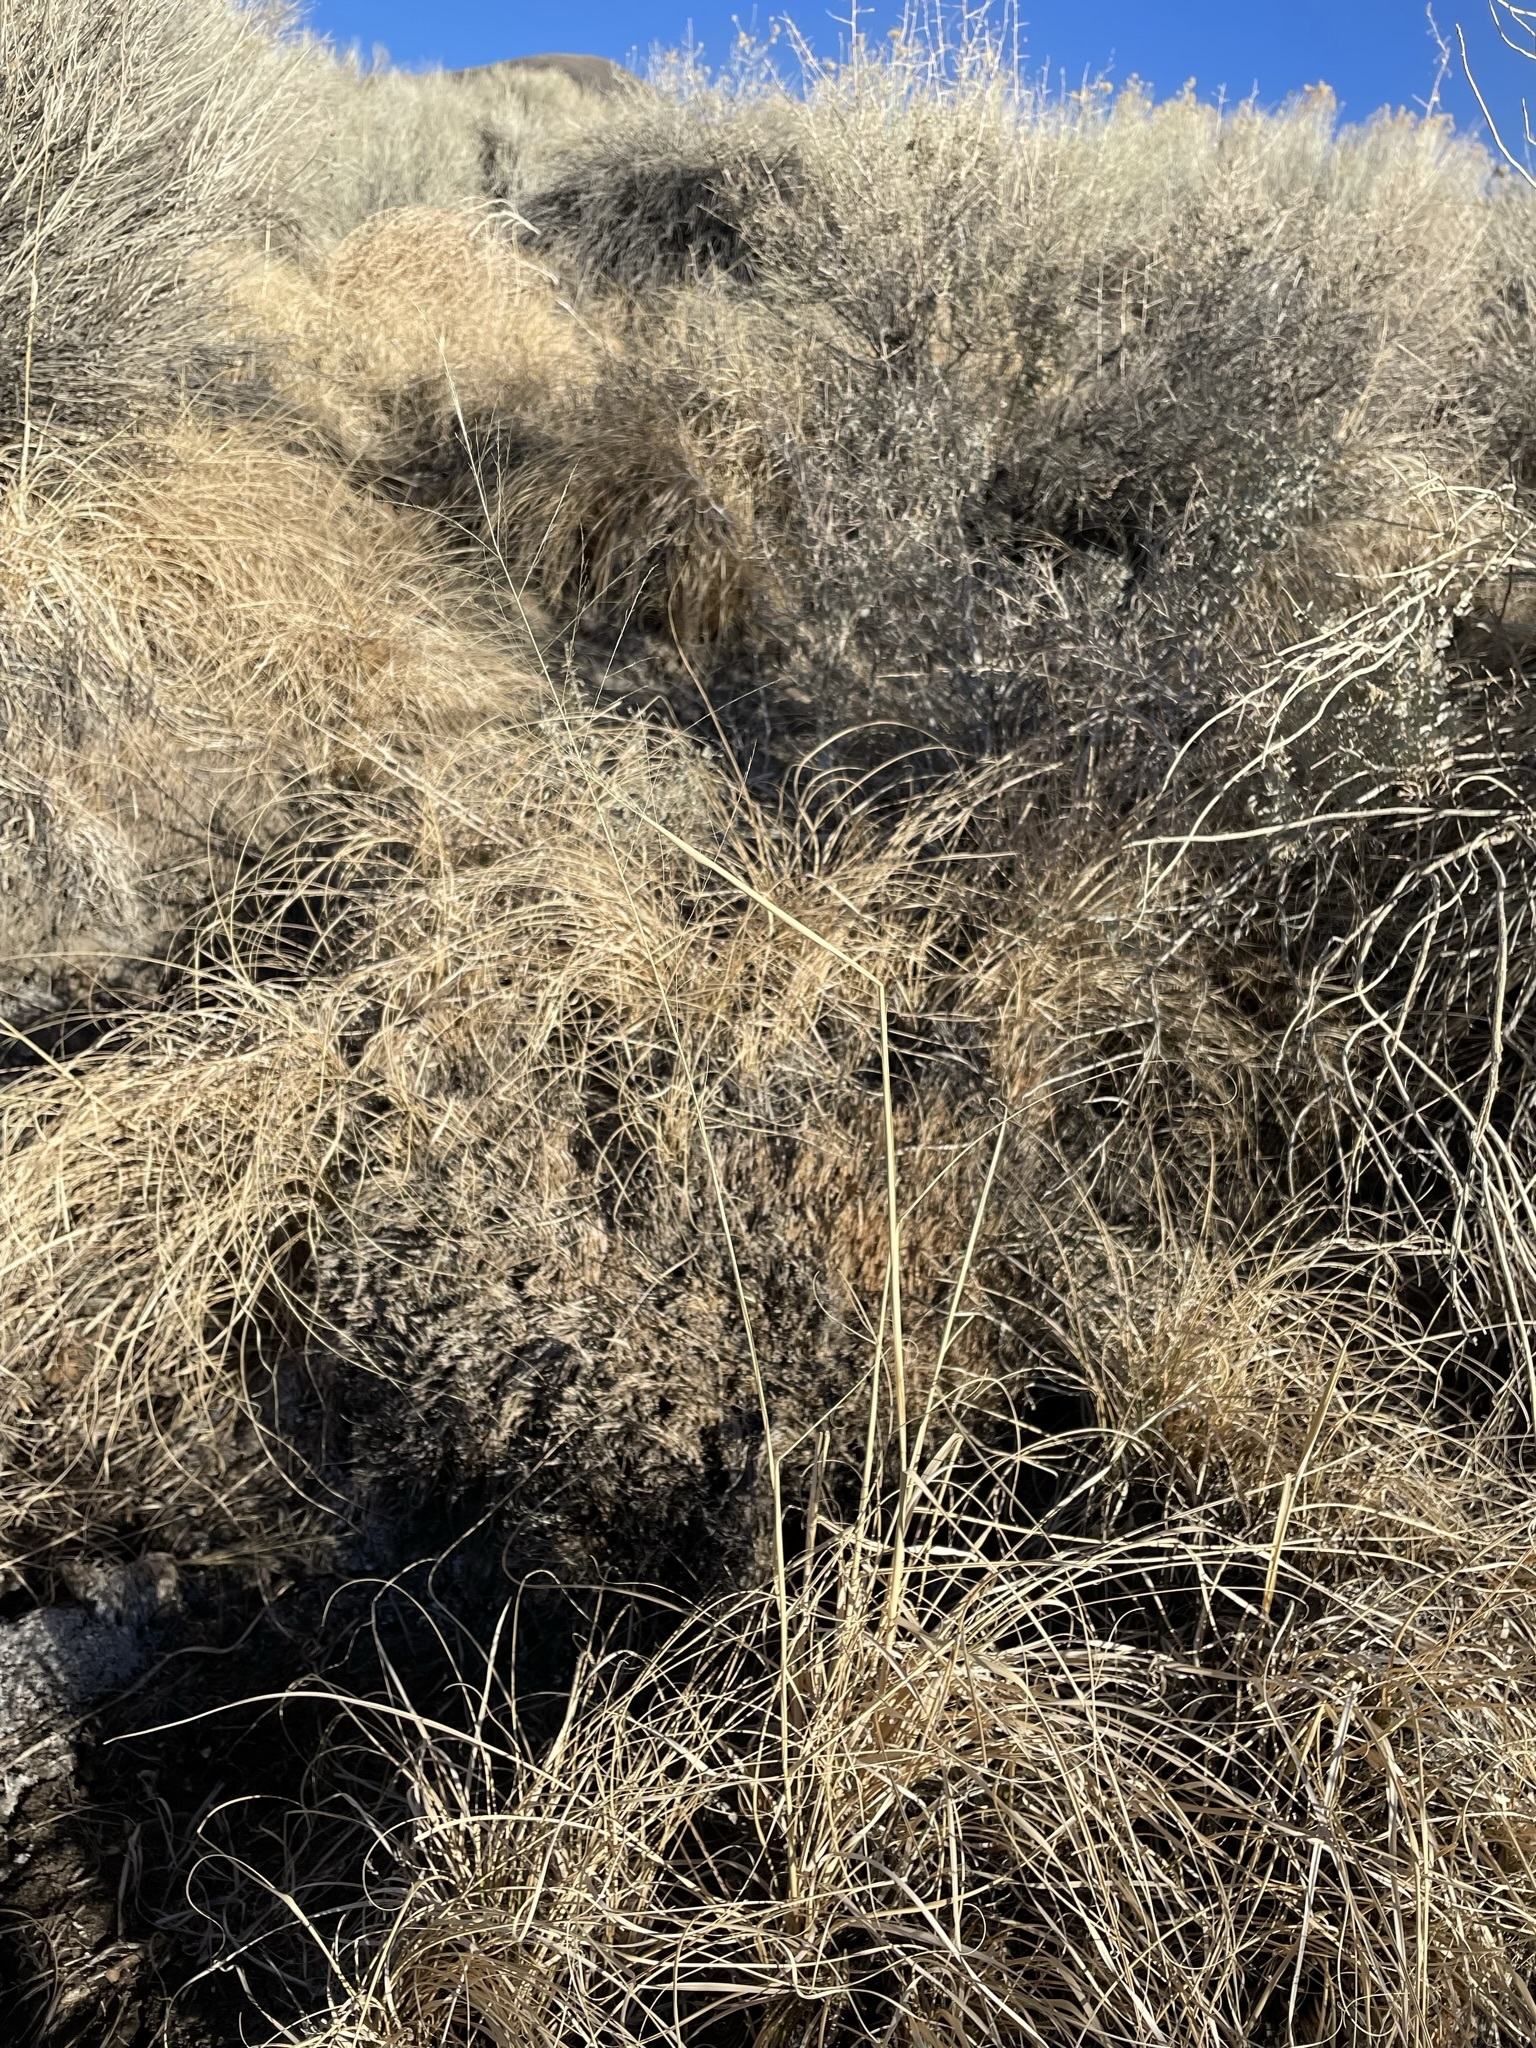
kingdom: Plantae
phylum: Tracheophyta
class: Liliopsida
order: Poales
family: Poaceae
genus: Sporobolus
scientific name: Sporobolus airoides
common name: Alkali sacaton
